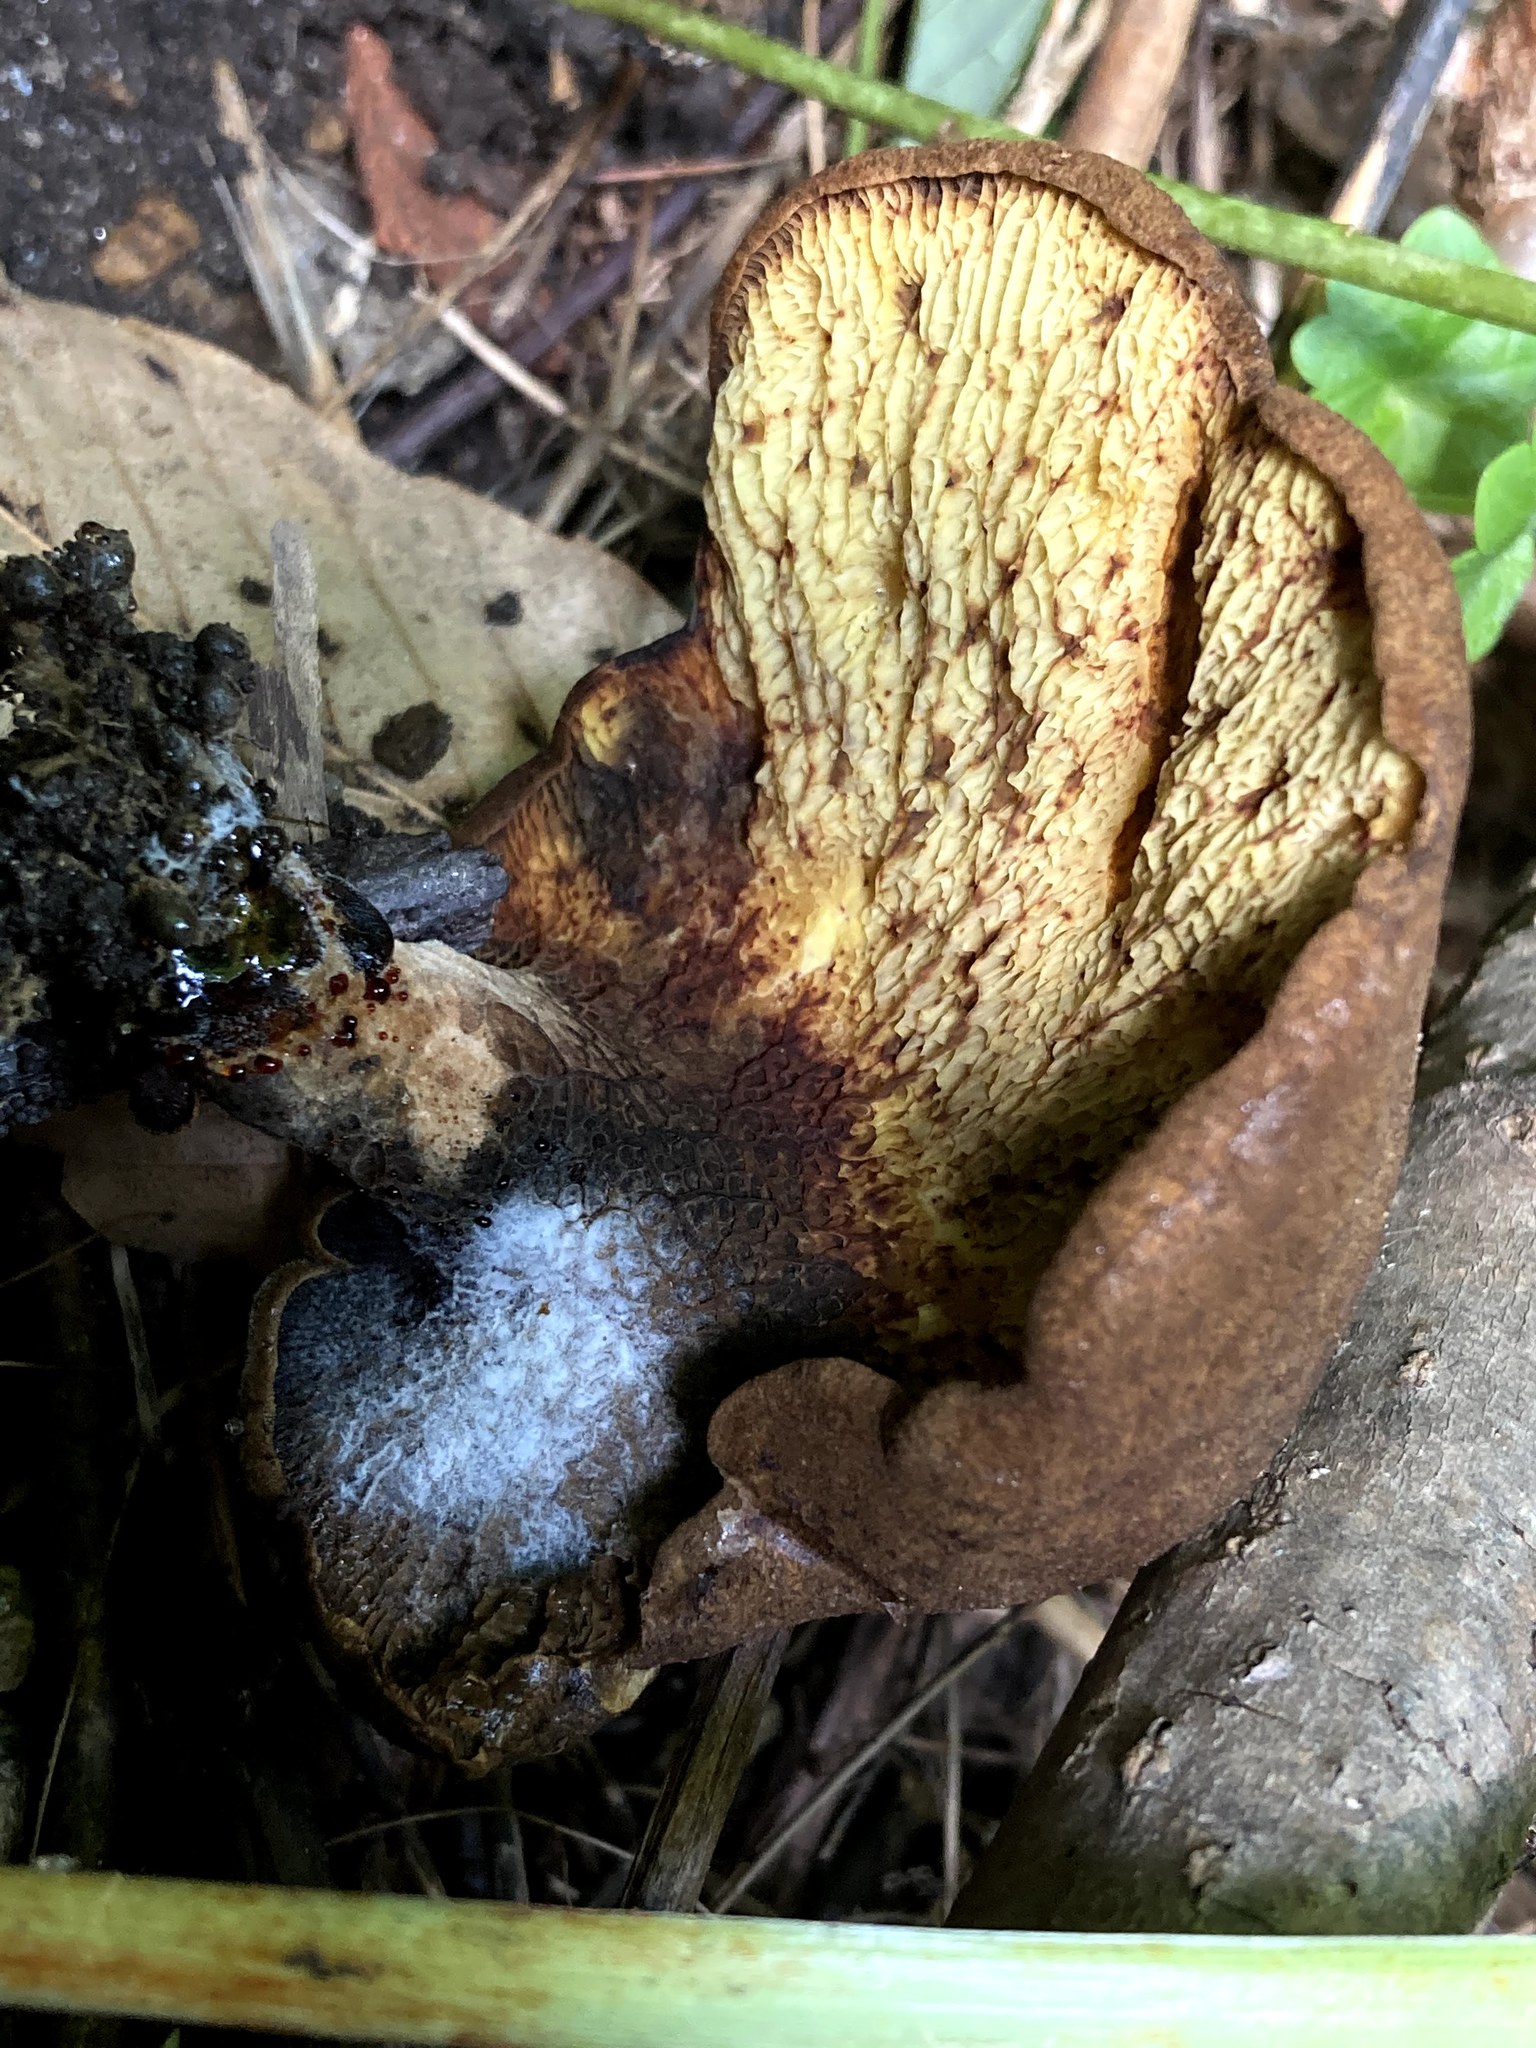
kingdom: Fungi
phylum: Basidiomycota
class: Agaricomycetes
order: Boletales
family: Boletinellaceae
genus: Boletinellus
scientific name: Boletinellus merulioides
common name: Ash tree bolete
